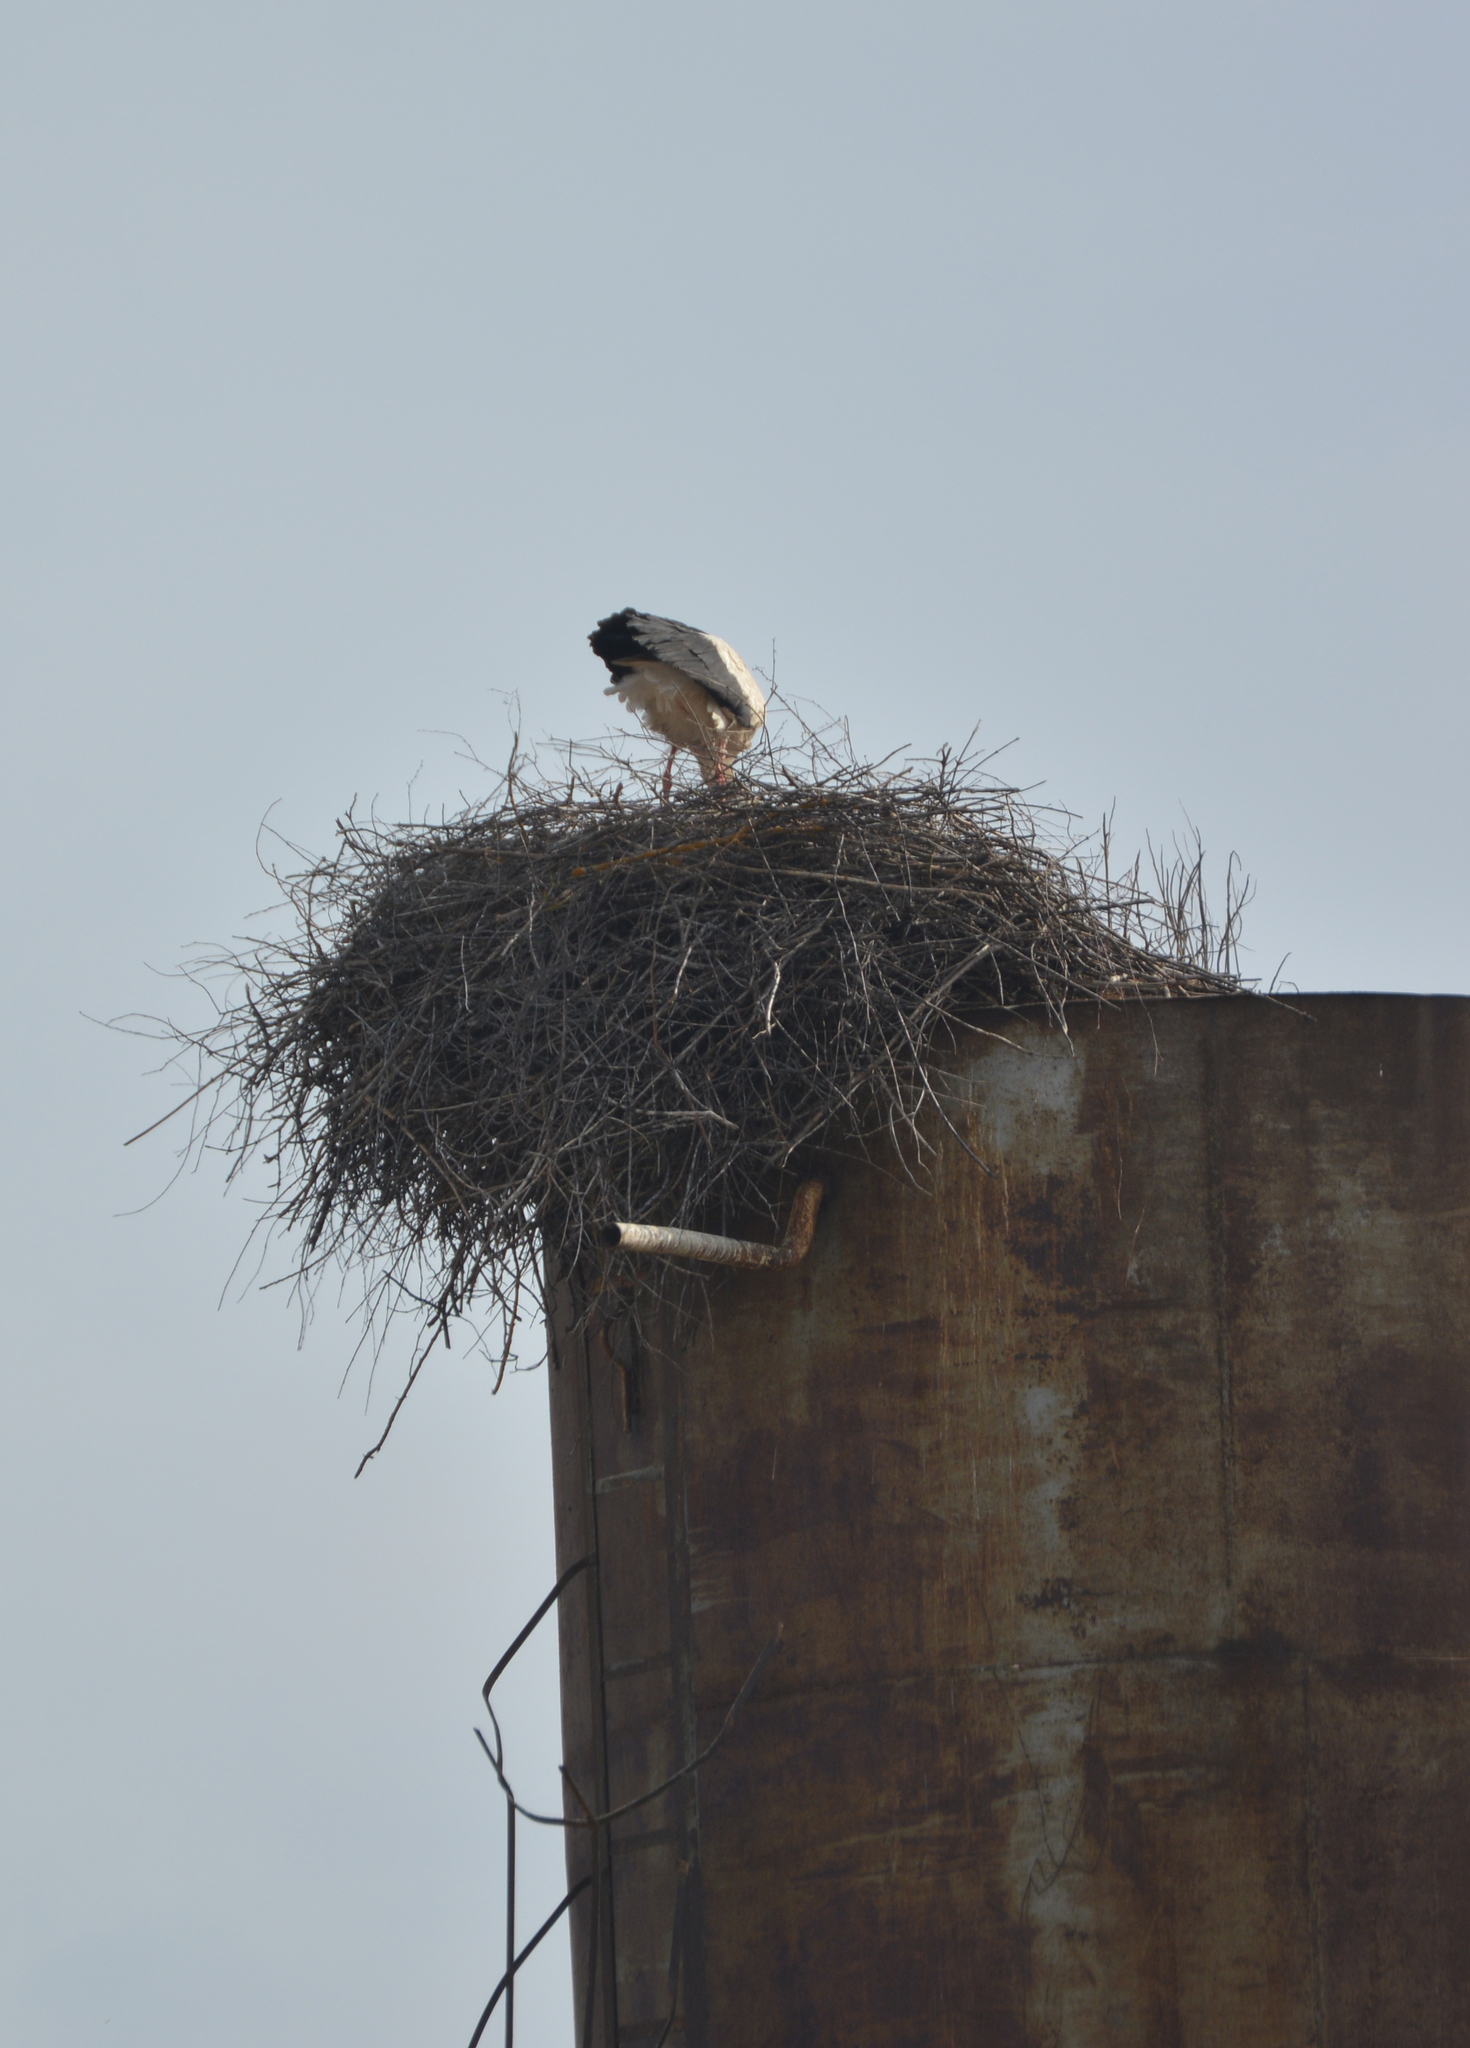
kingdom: Animalia
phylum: Chordata
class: Aves
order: Ciconiiformes
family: Ciconiidae
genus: Ciconia
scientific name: Ciconia ciconia
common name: White stork
